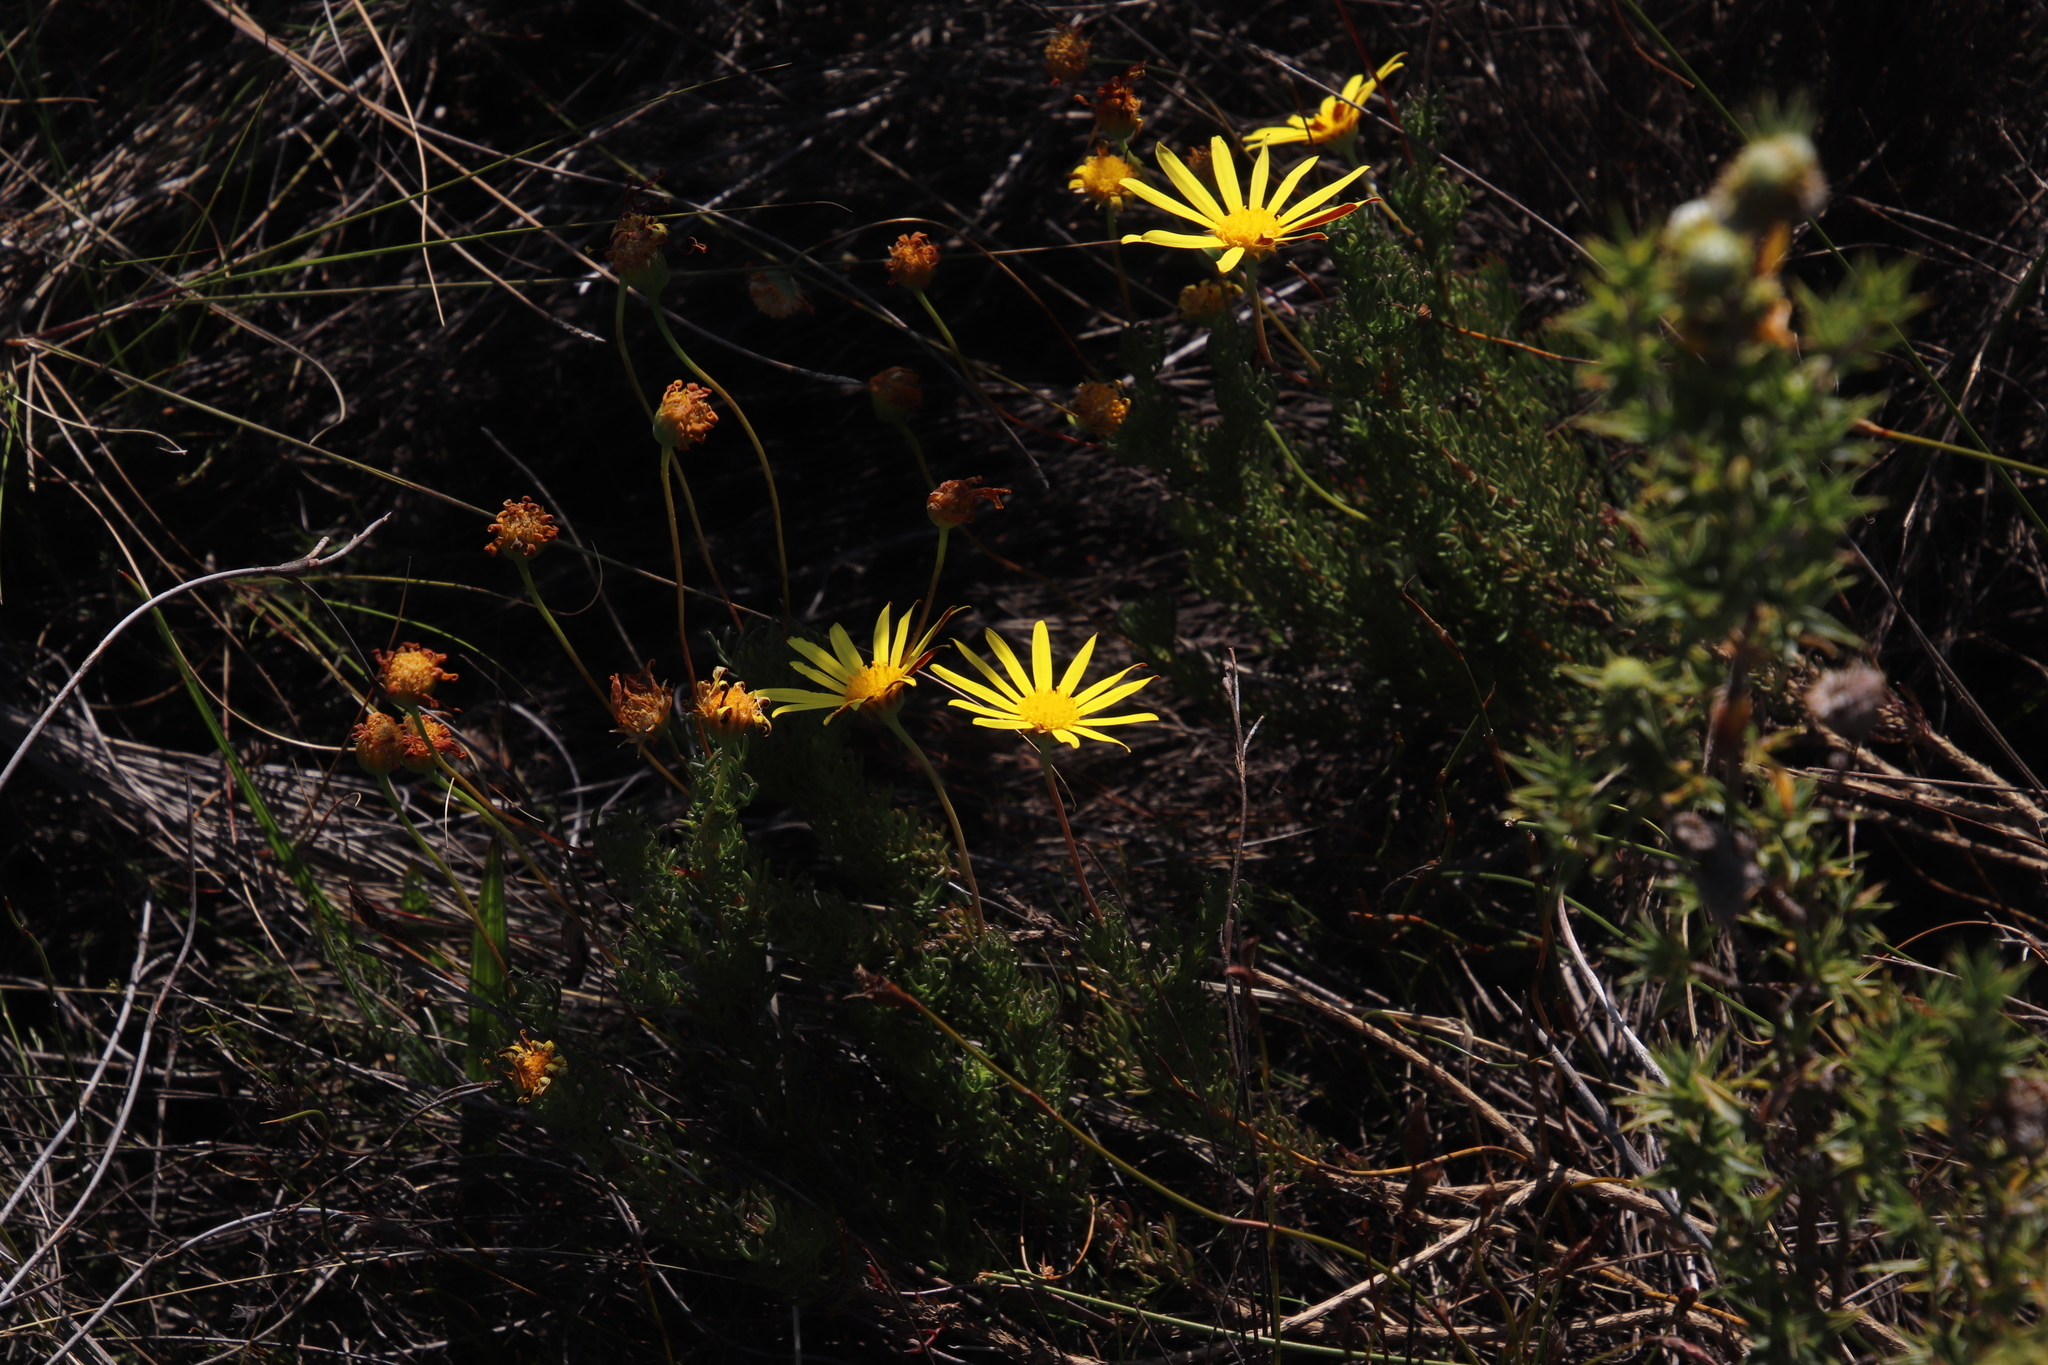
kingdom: Plantae
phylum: Tracheophyta
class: Magnoliopsida
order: Asterales
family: Asteraceae
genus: Euryops
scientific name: Euryops abrotanifolius
